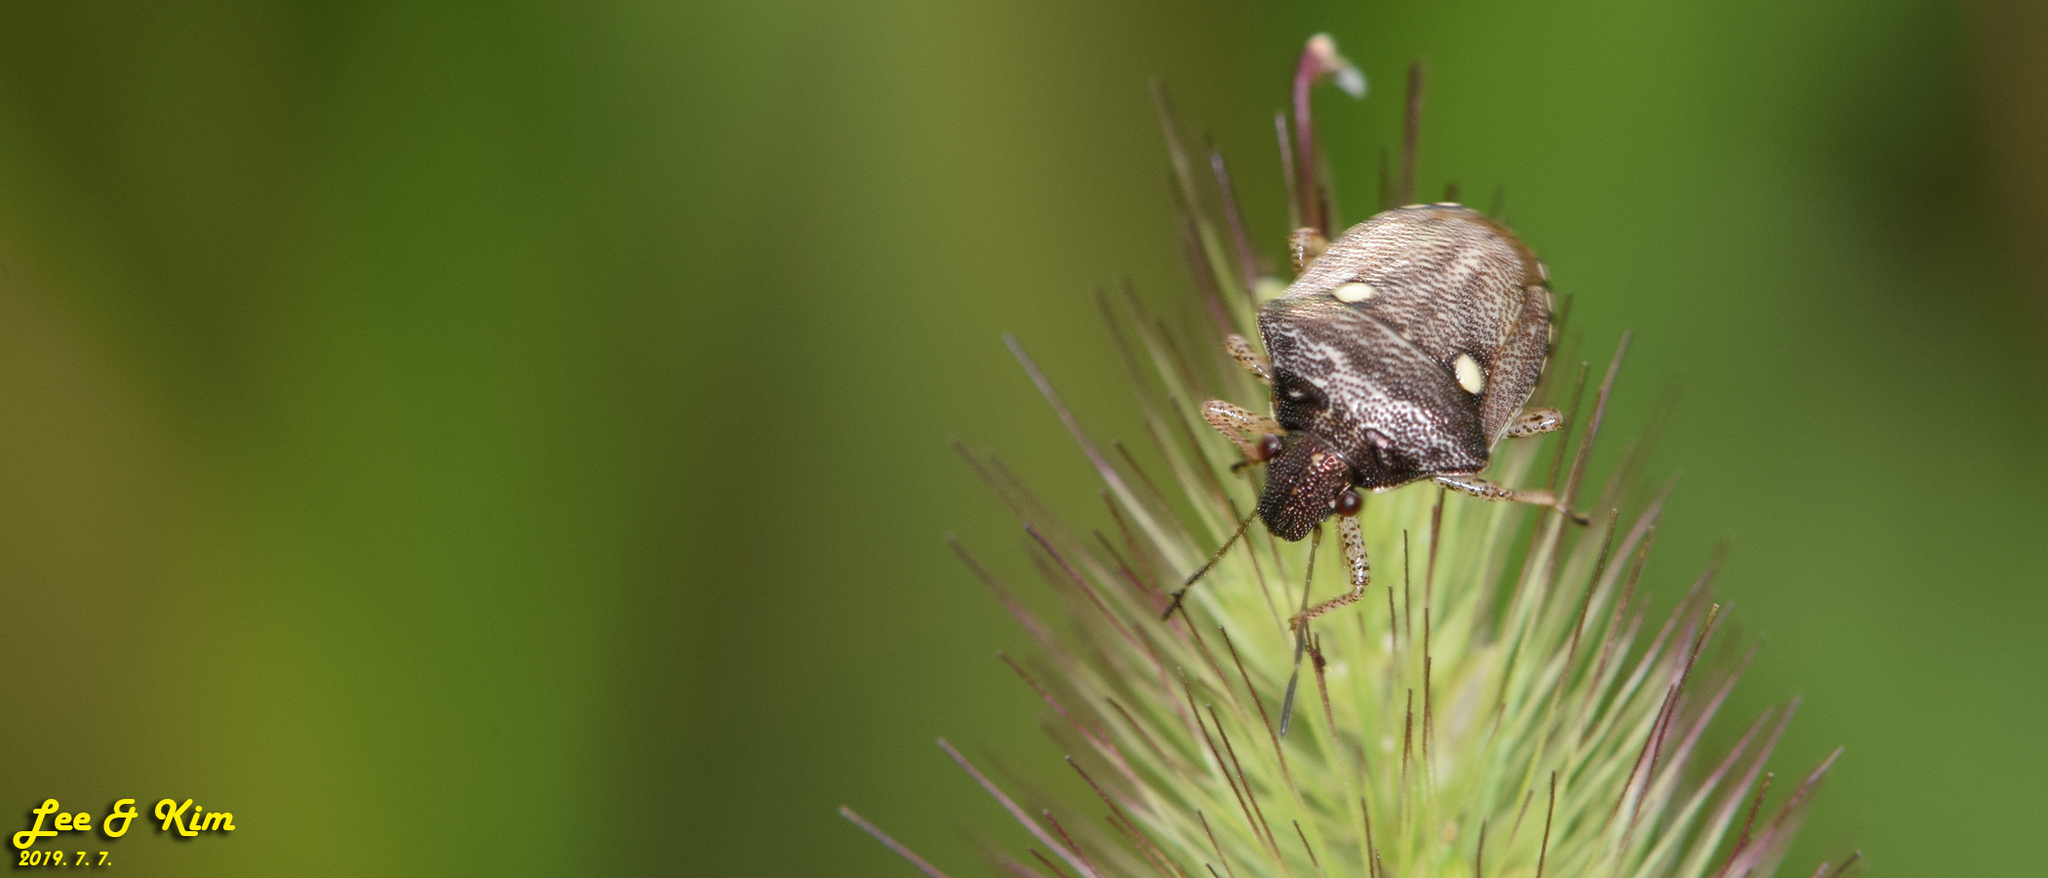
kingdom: Animalia
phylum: Arthropoda
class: Insecta
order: Hemiptera
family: Pentatomidae
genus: Eysarcoris
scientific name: Eysarcoris guttigerus
